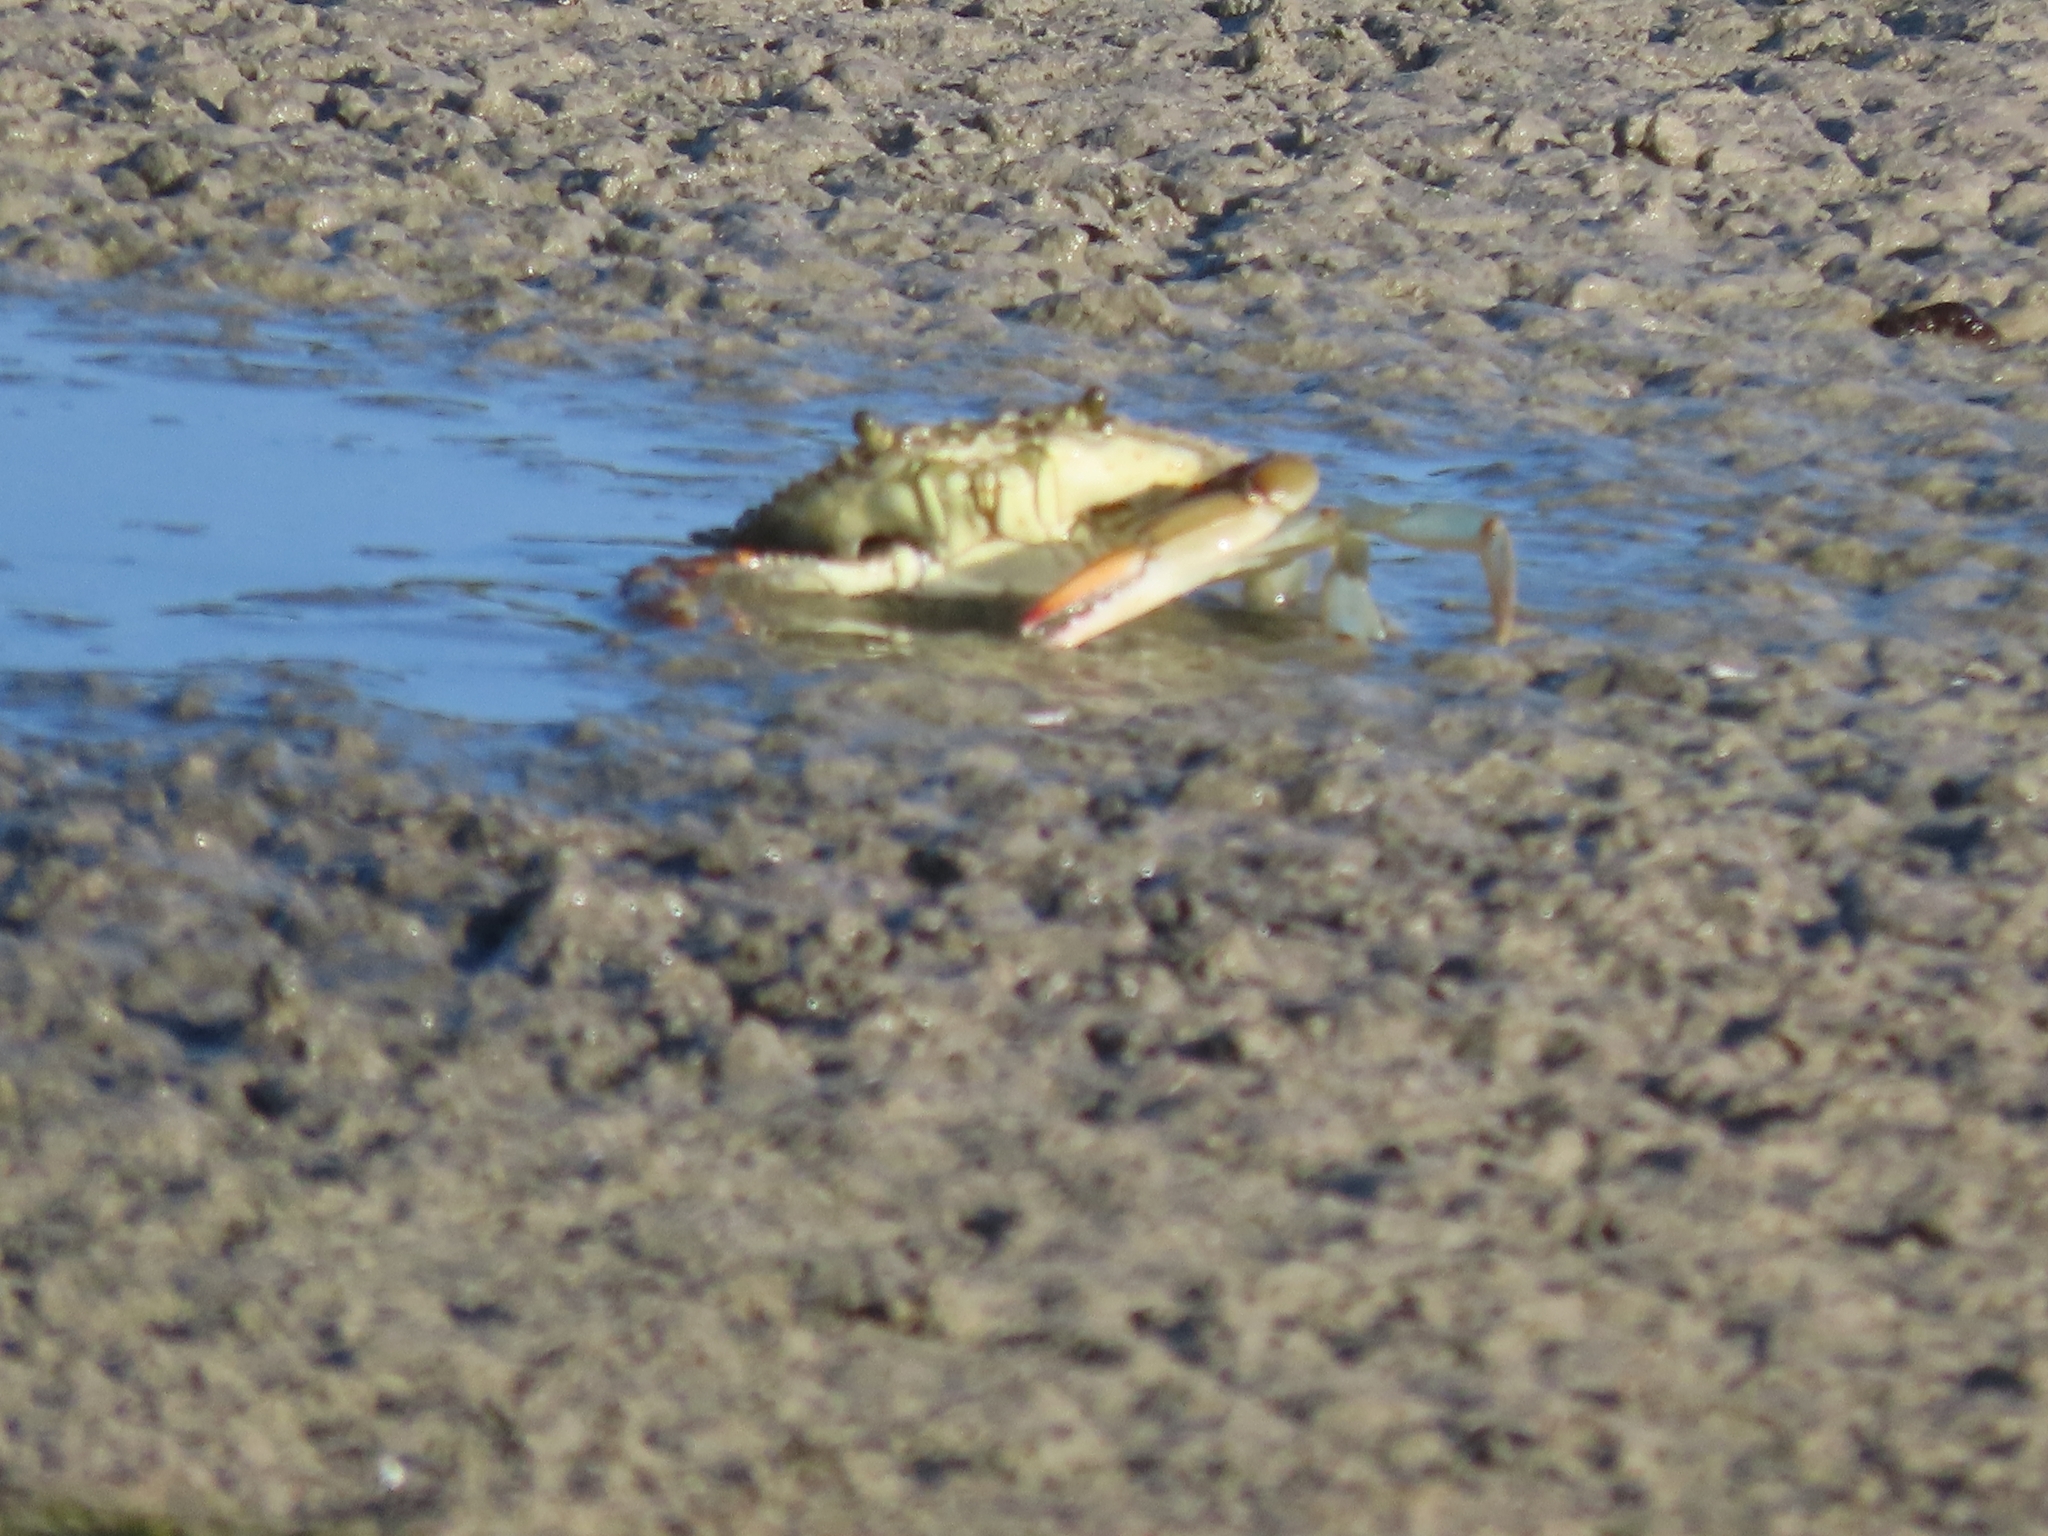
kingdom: Animalia
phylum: Arthropoda
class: Malacostraca
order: Decapoda
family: Portunidae
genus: Callinectes
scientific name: Callinectes sapidus
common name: Blue crab
